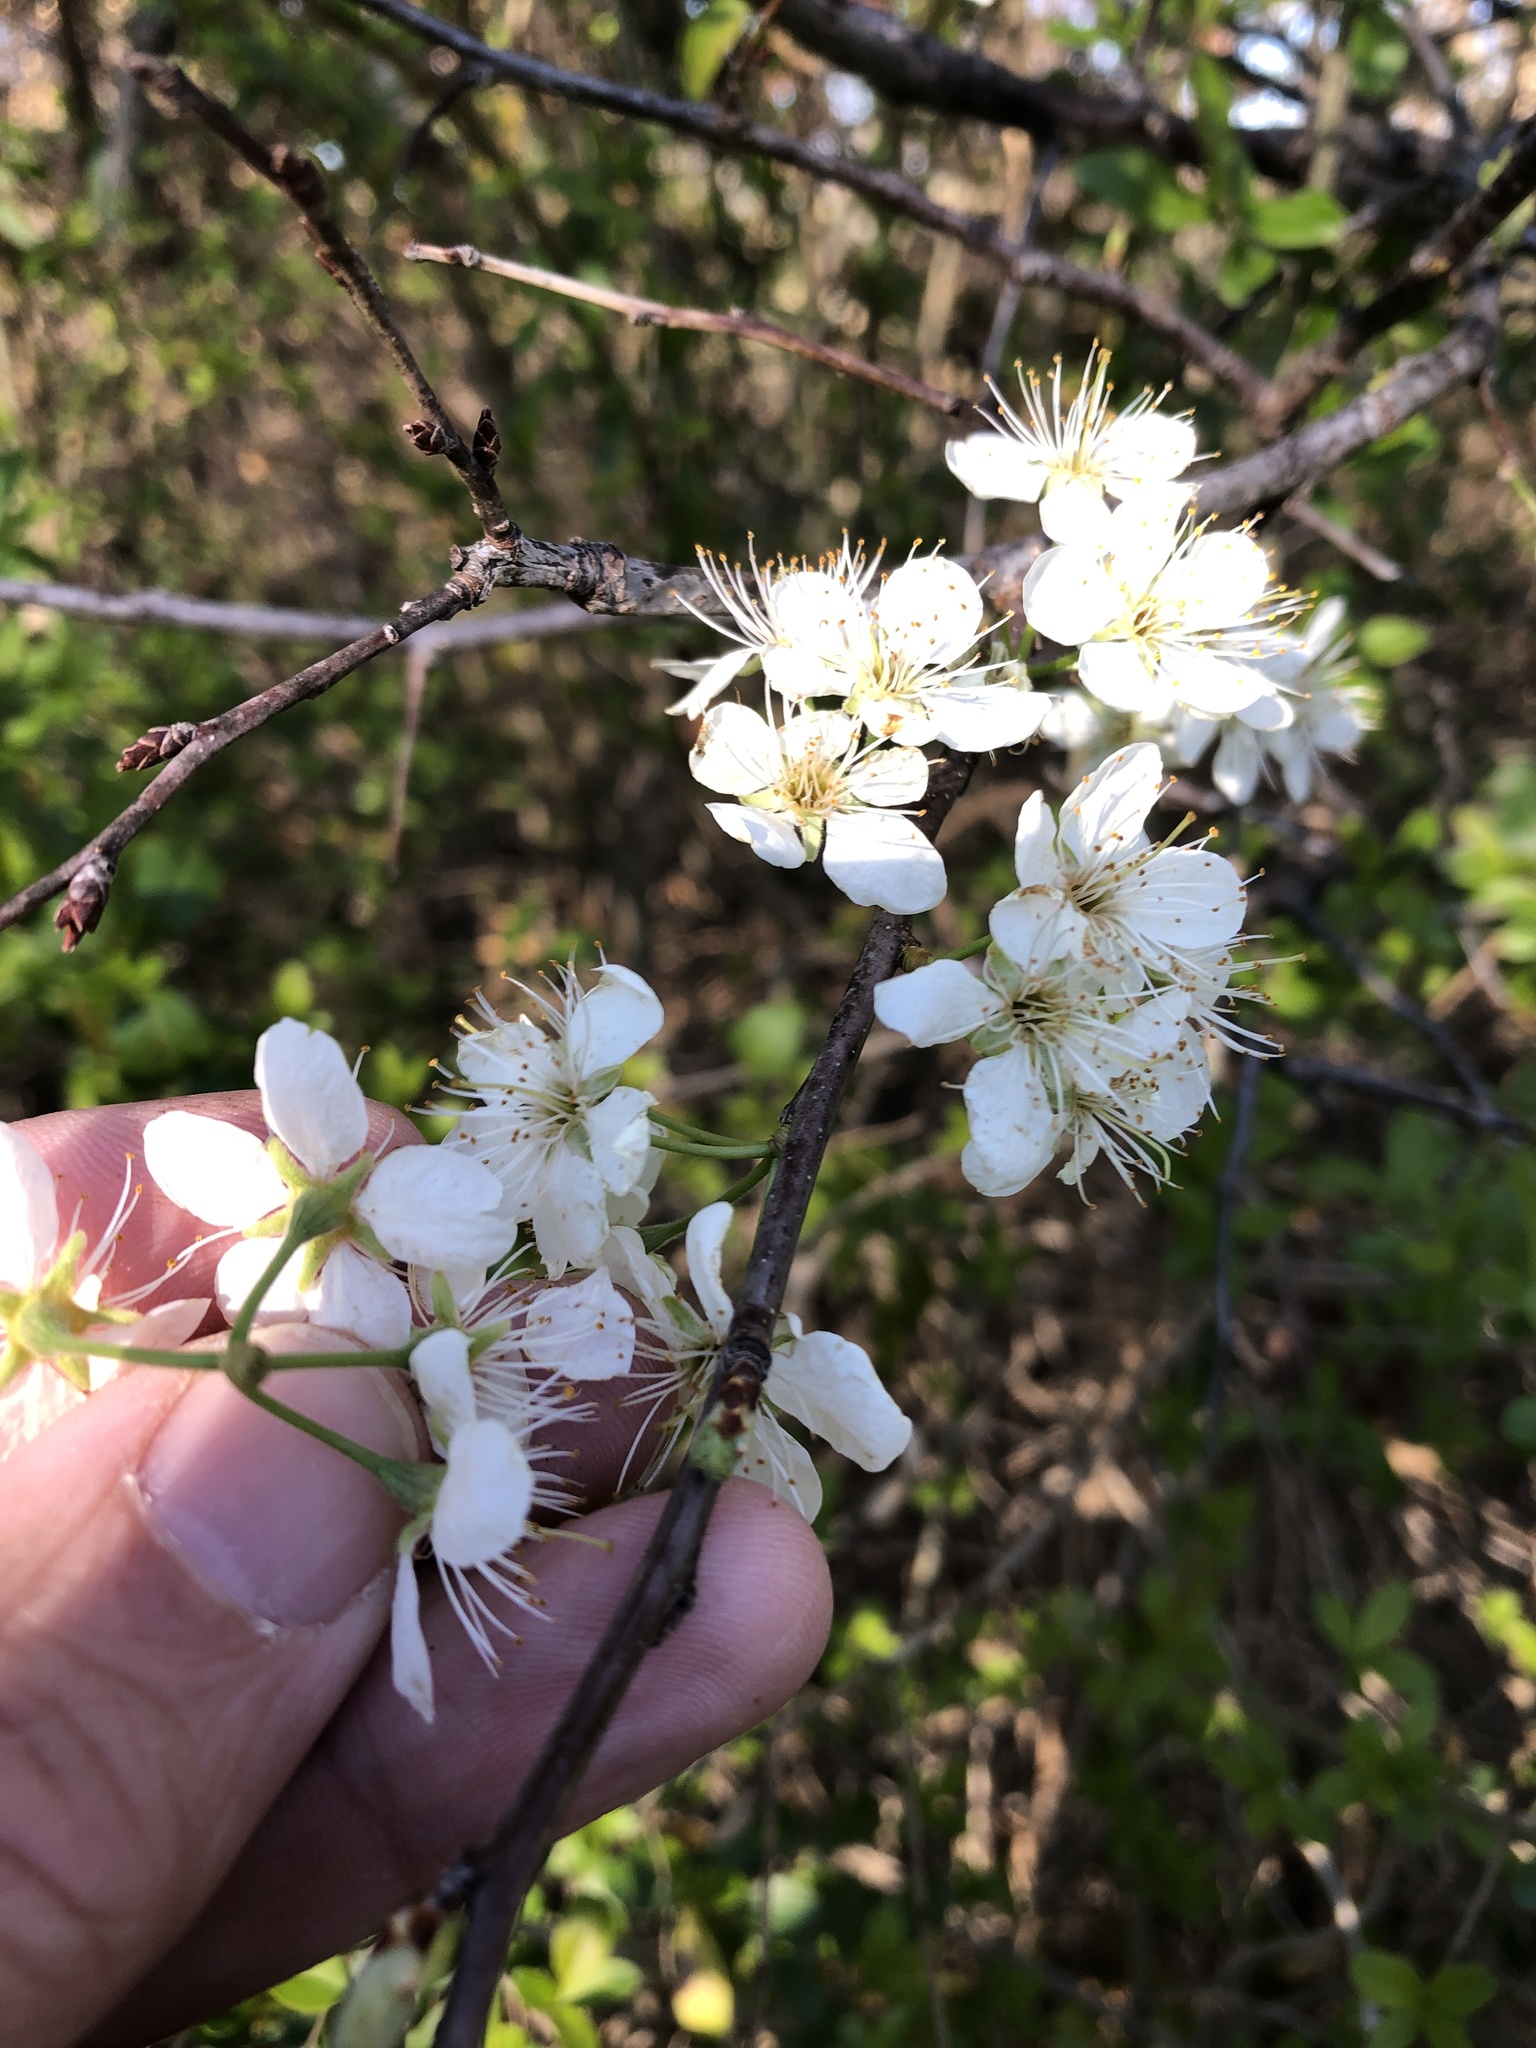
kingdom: Plantae
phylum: Tracheophyta
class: Magnoliopsida
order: Rosales
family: Rosaceae
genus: Prunus
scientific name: Prunus mexicana
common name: Mexican plum
